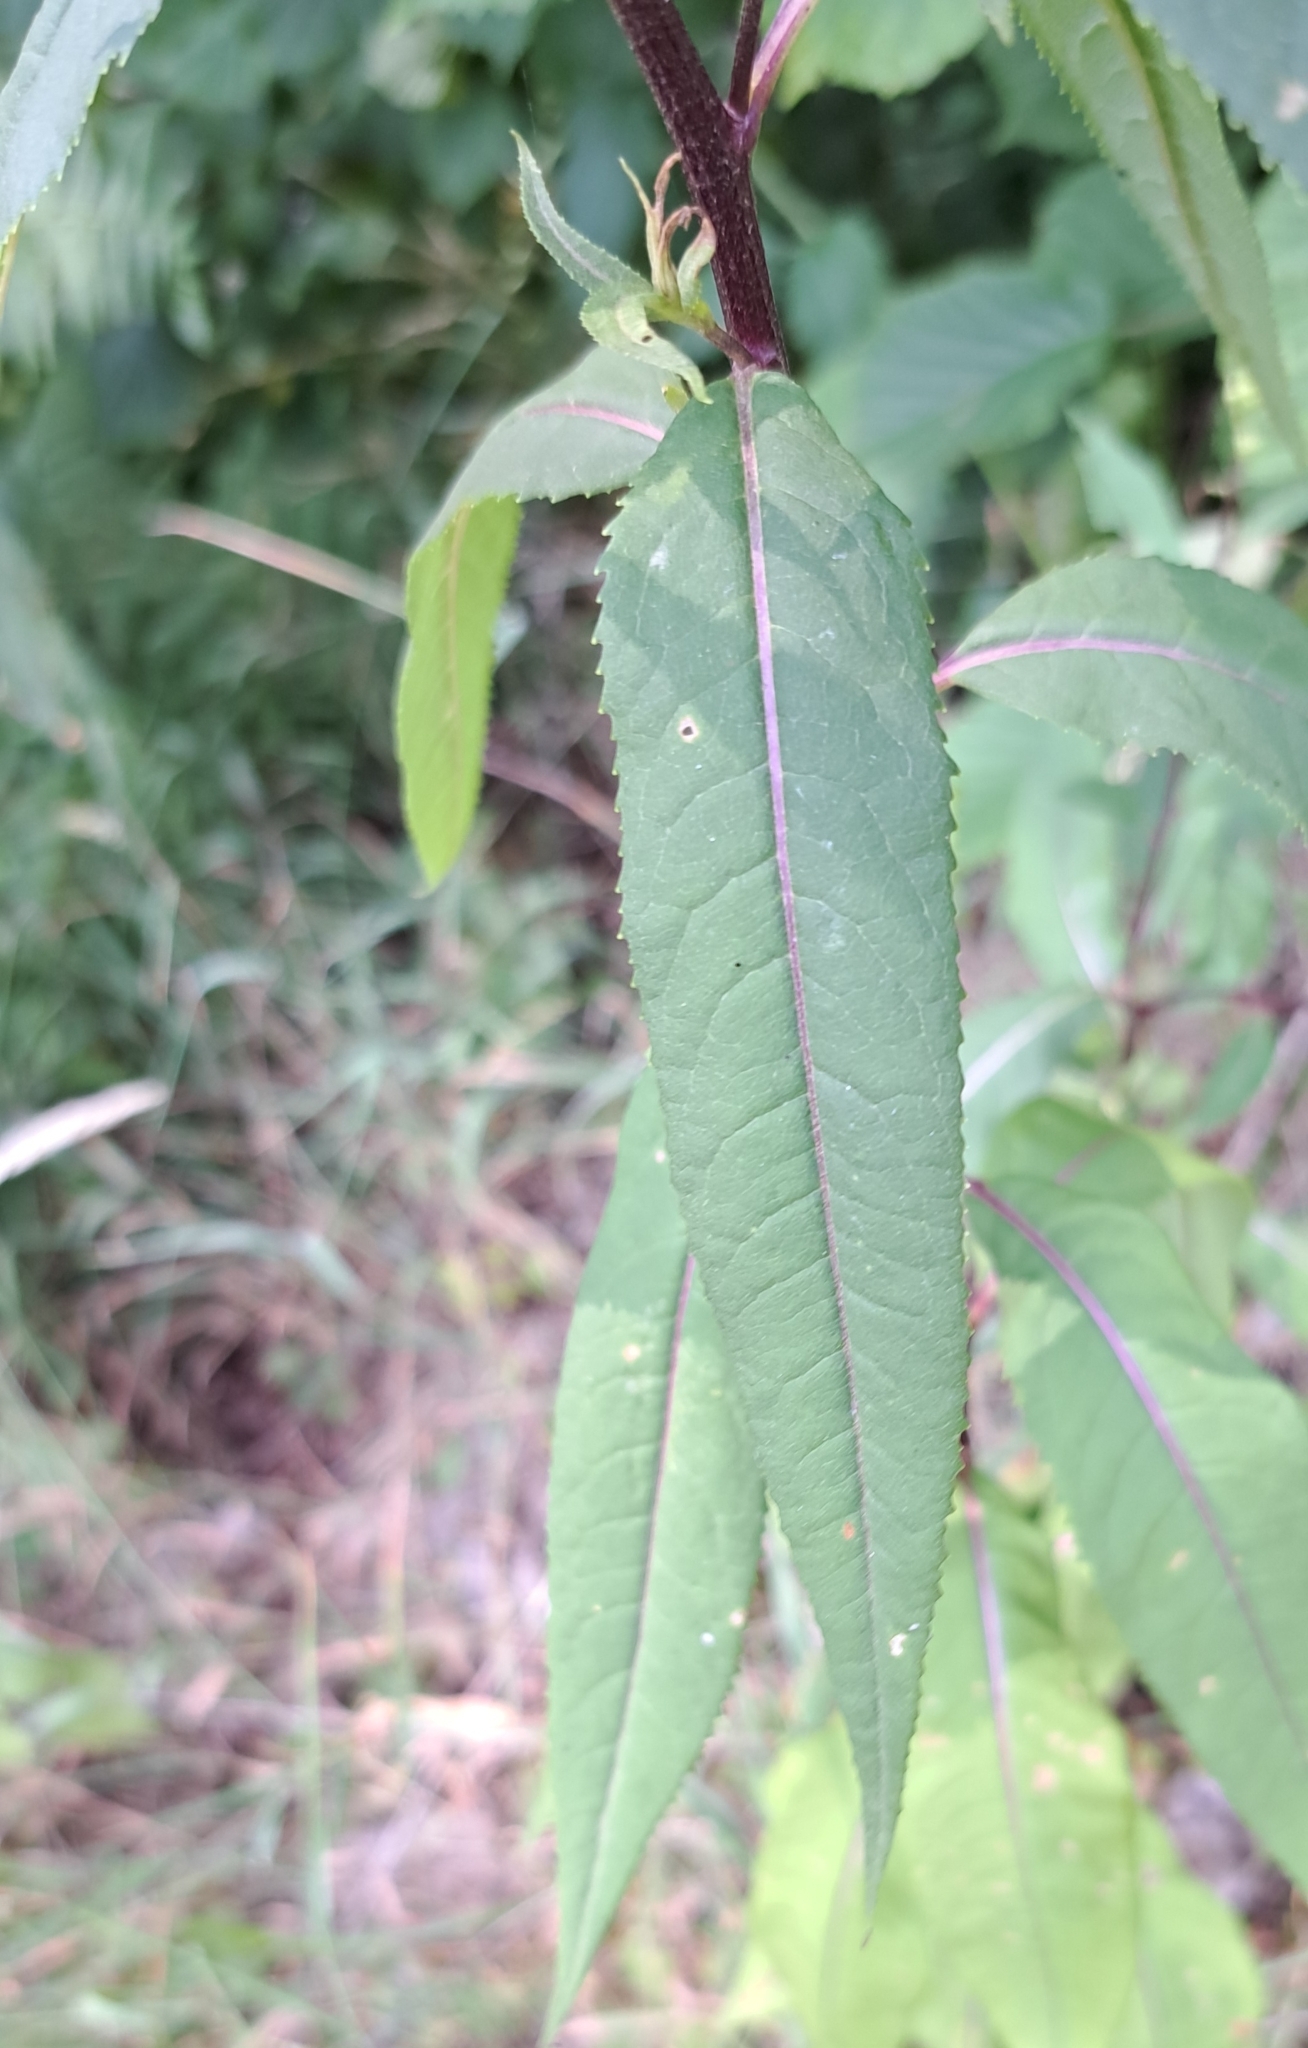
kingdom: Plantae
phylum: Tracheophyta
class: Magnoliopsida
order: Asterales
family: Asteraceae
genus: Senecio
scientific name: Senecio ovatus
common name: Wood ragwort
